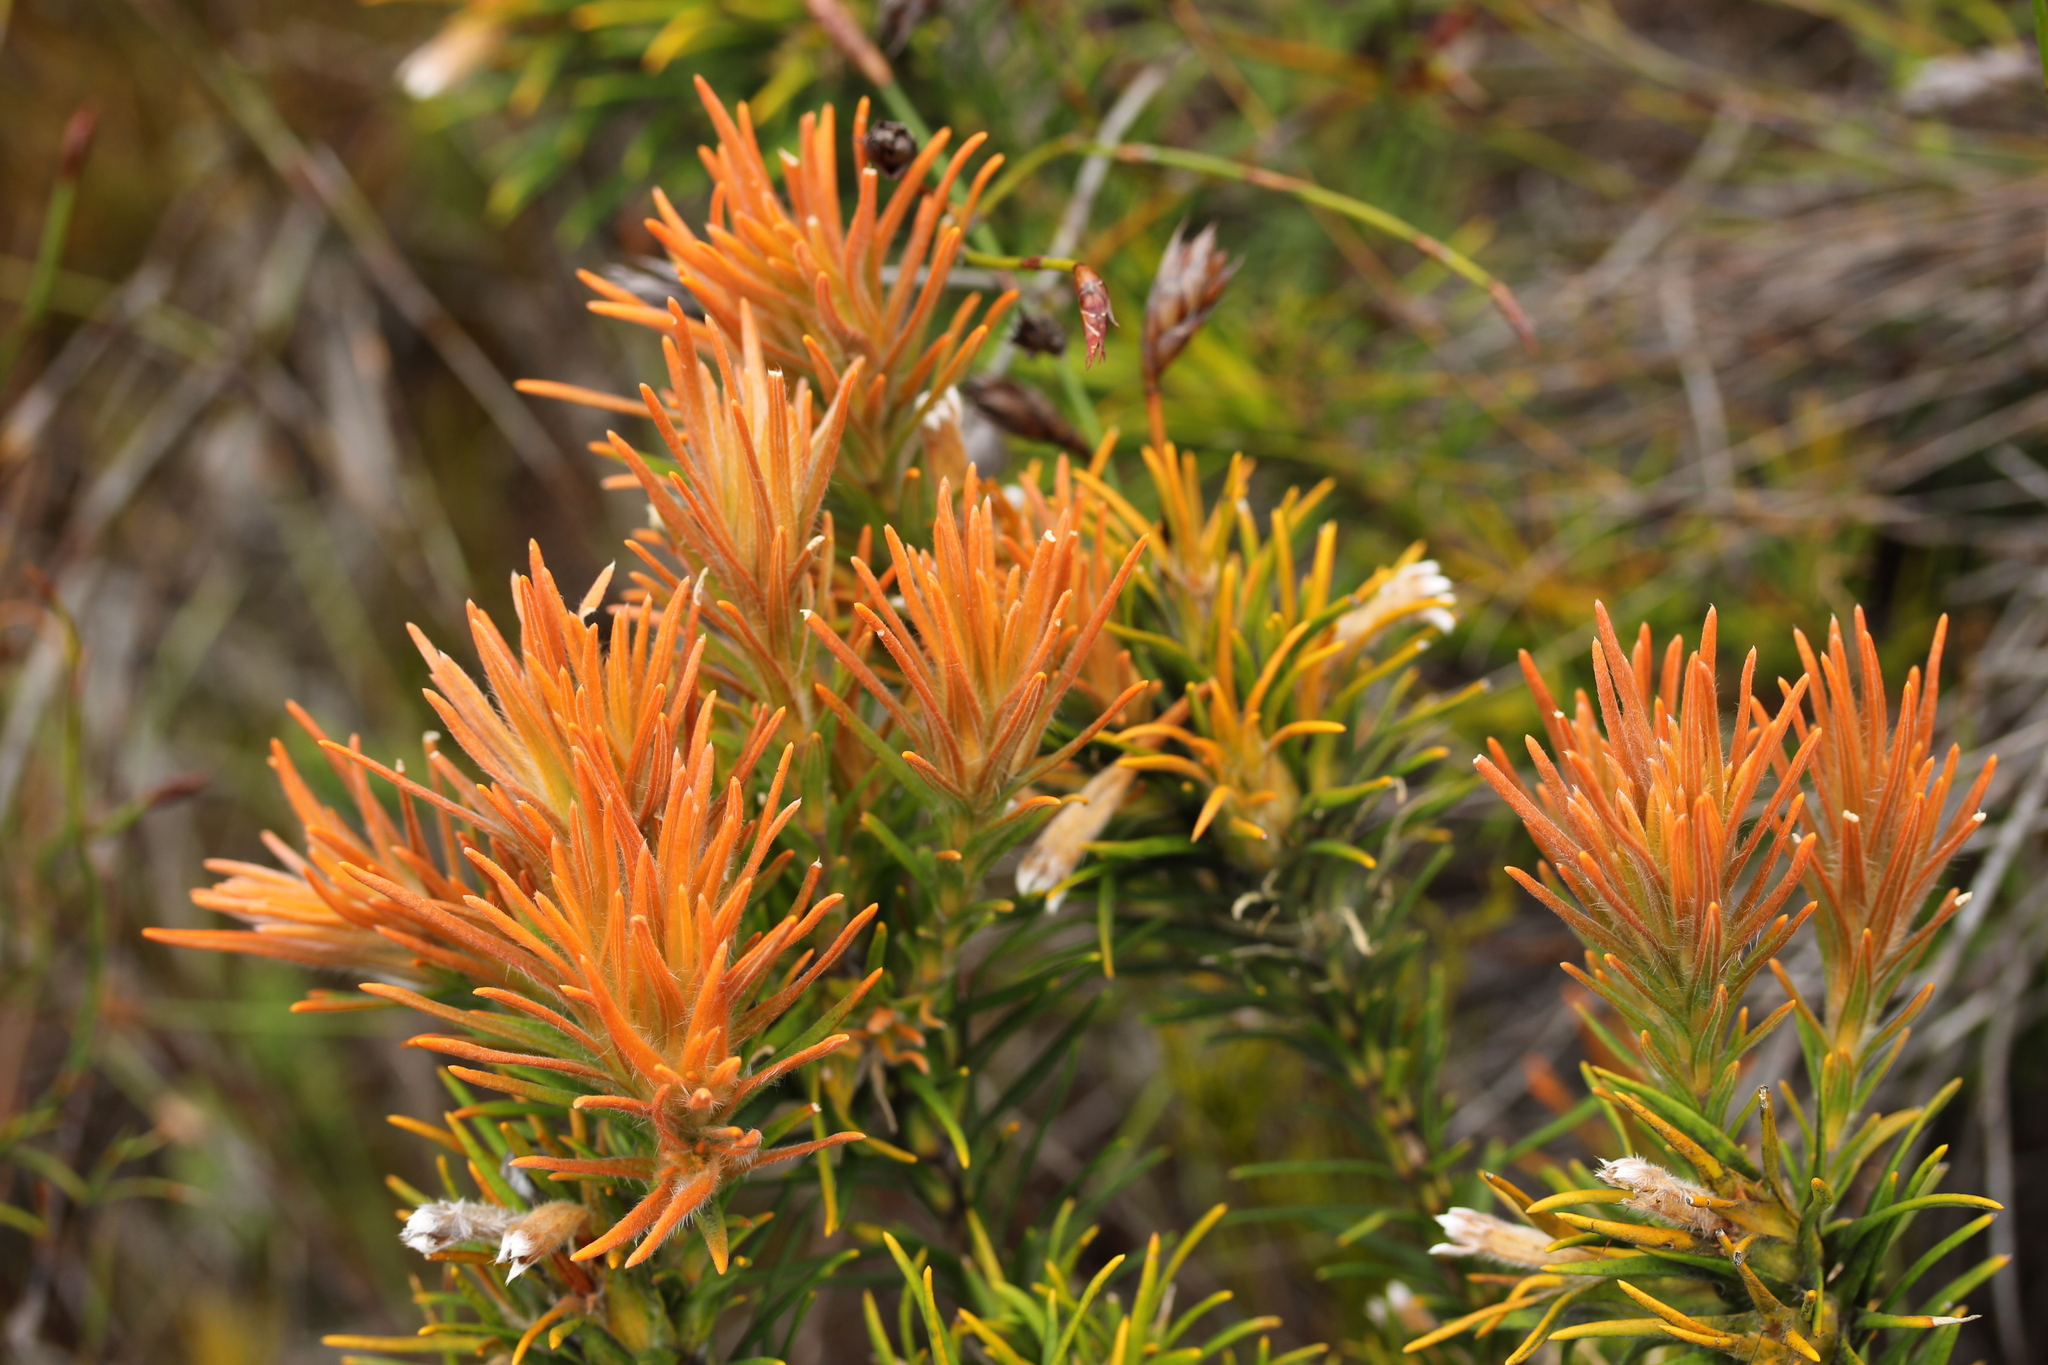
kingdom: Plantae
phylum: Tracheophyta
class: Magnoliopsida
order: Lamiales
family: Stilbaceae
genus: Retzia
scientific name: Retzia capensis
